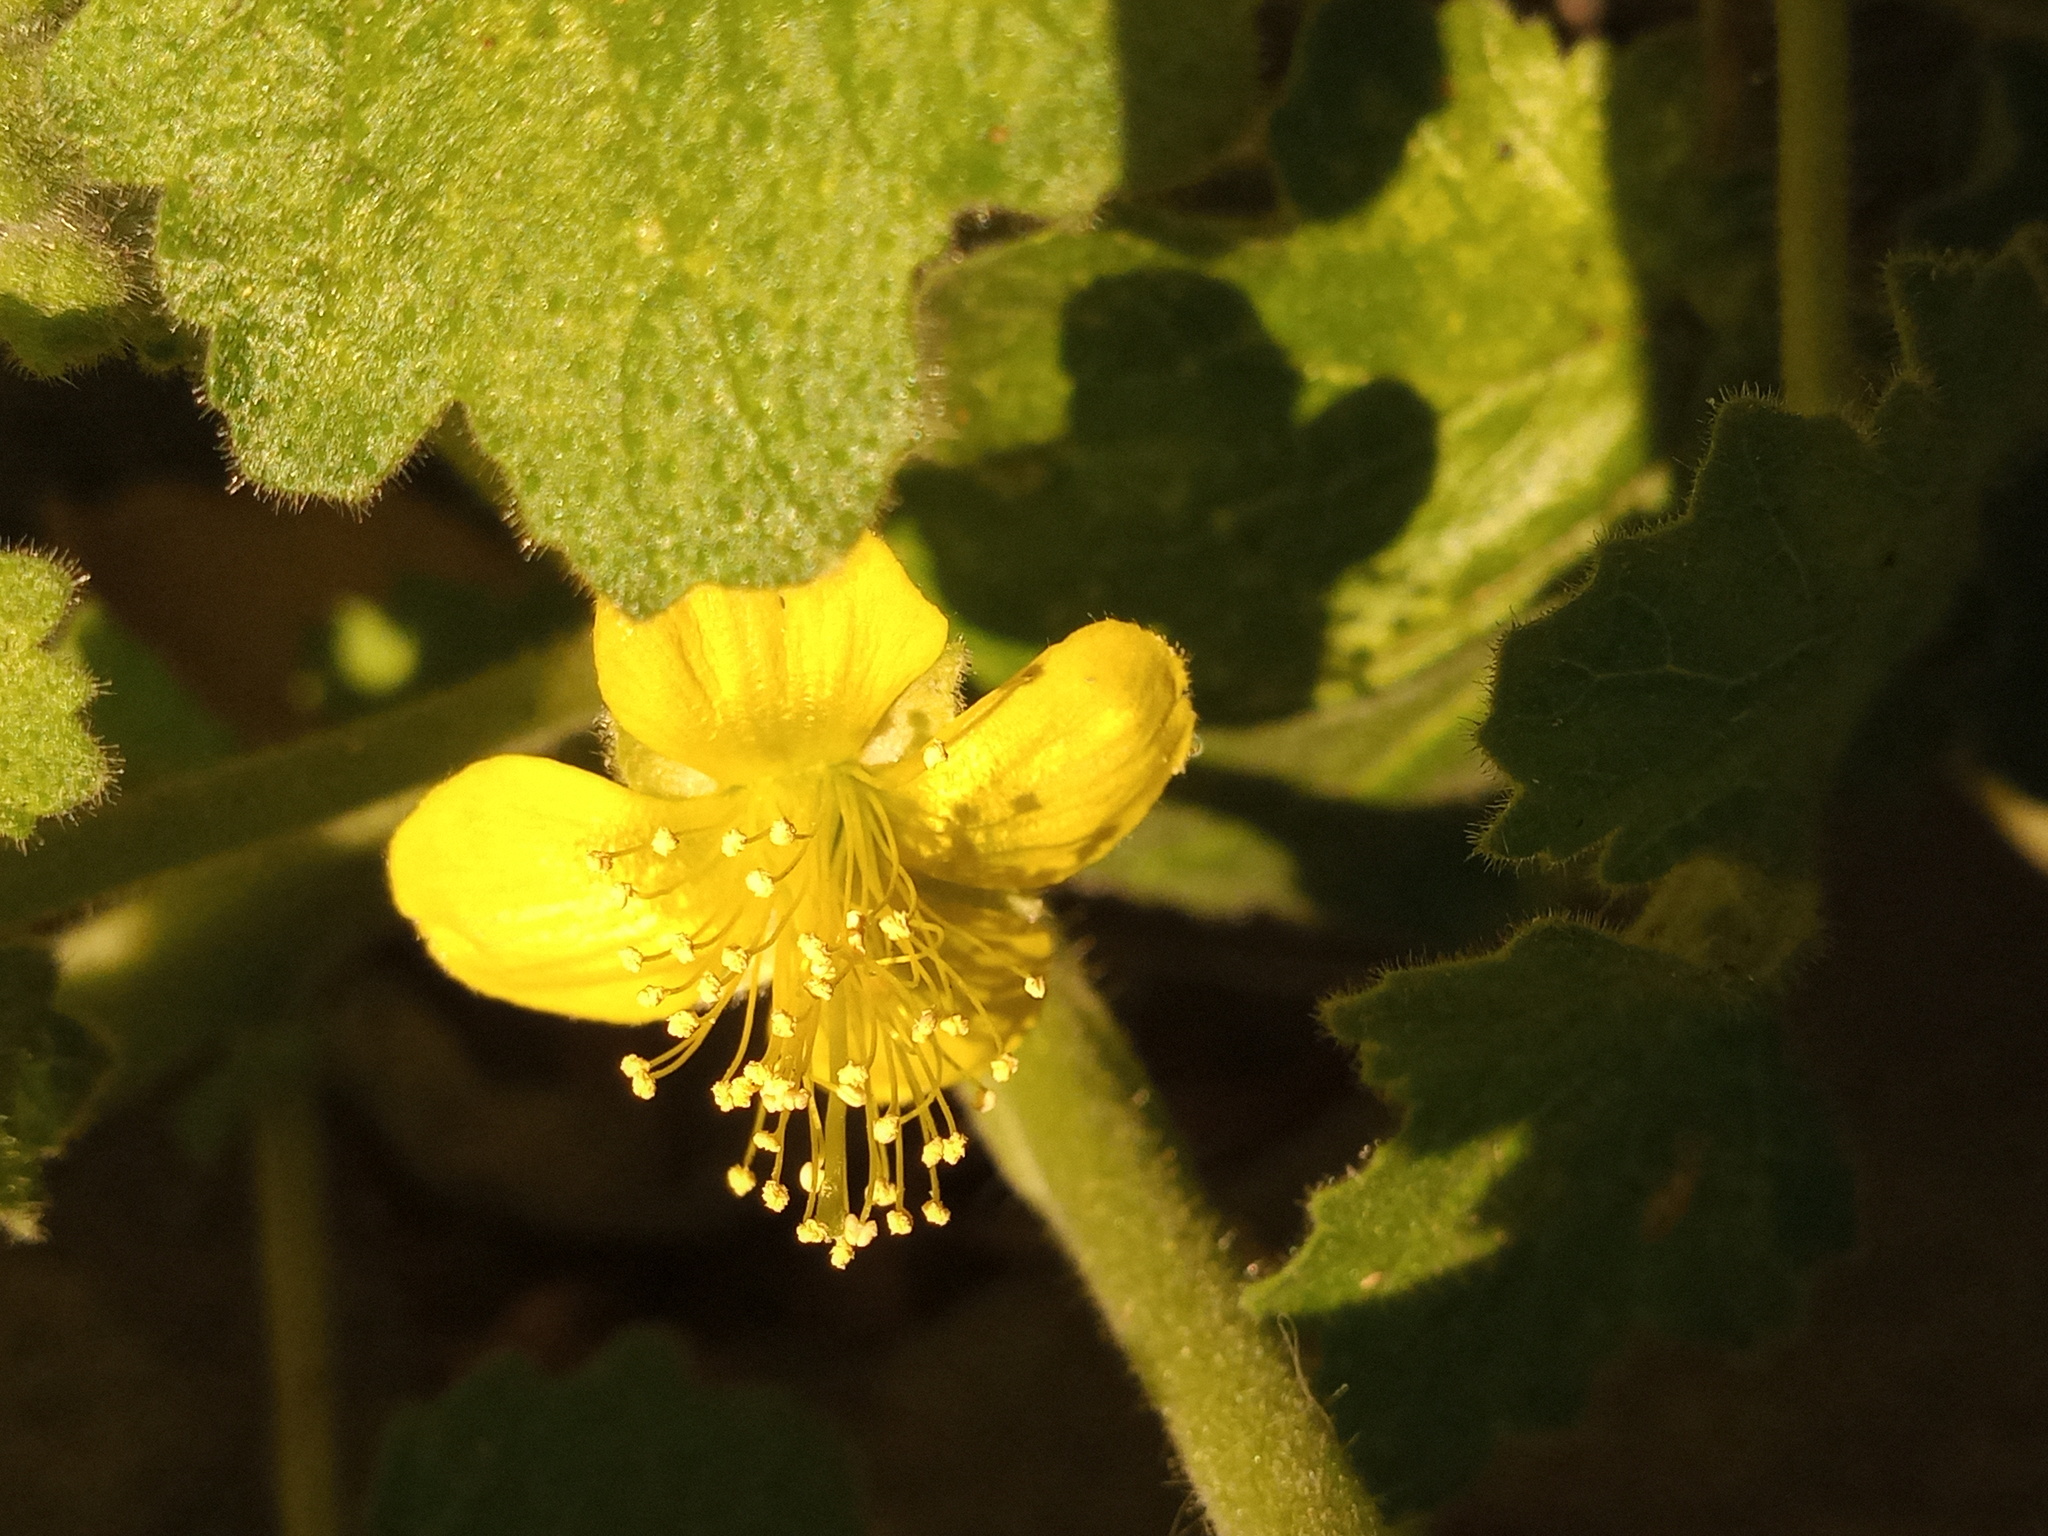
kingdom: Plantae
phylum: Tracheophyta
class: Magnoliopsida
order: Cornales
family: Loasaceae
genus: Eucnide
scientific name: Eucnide lobata
